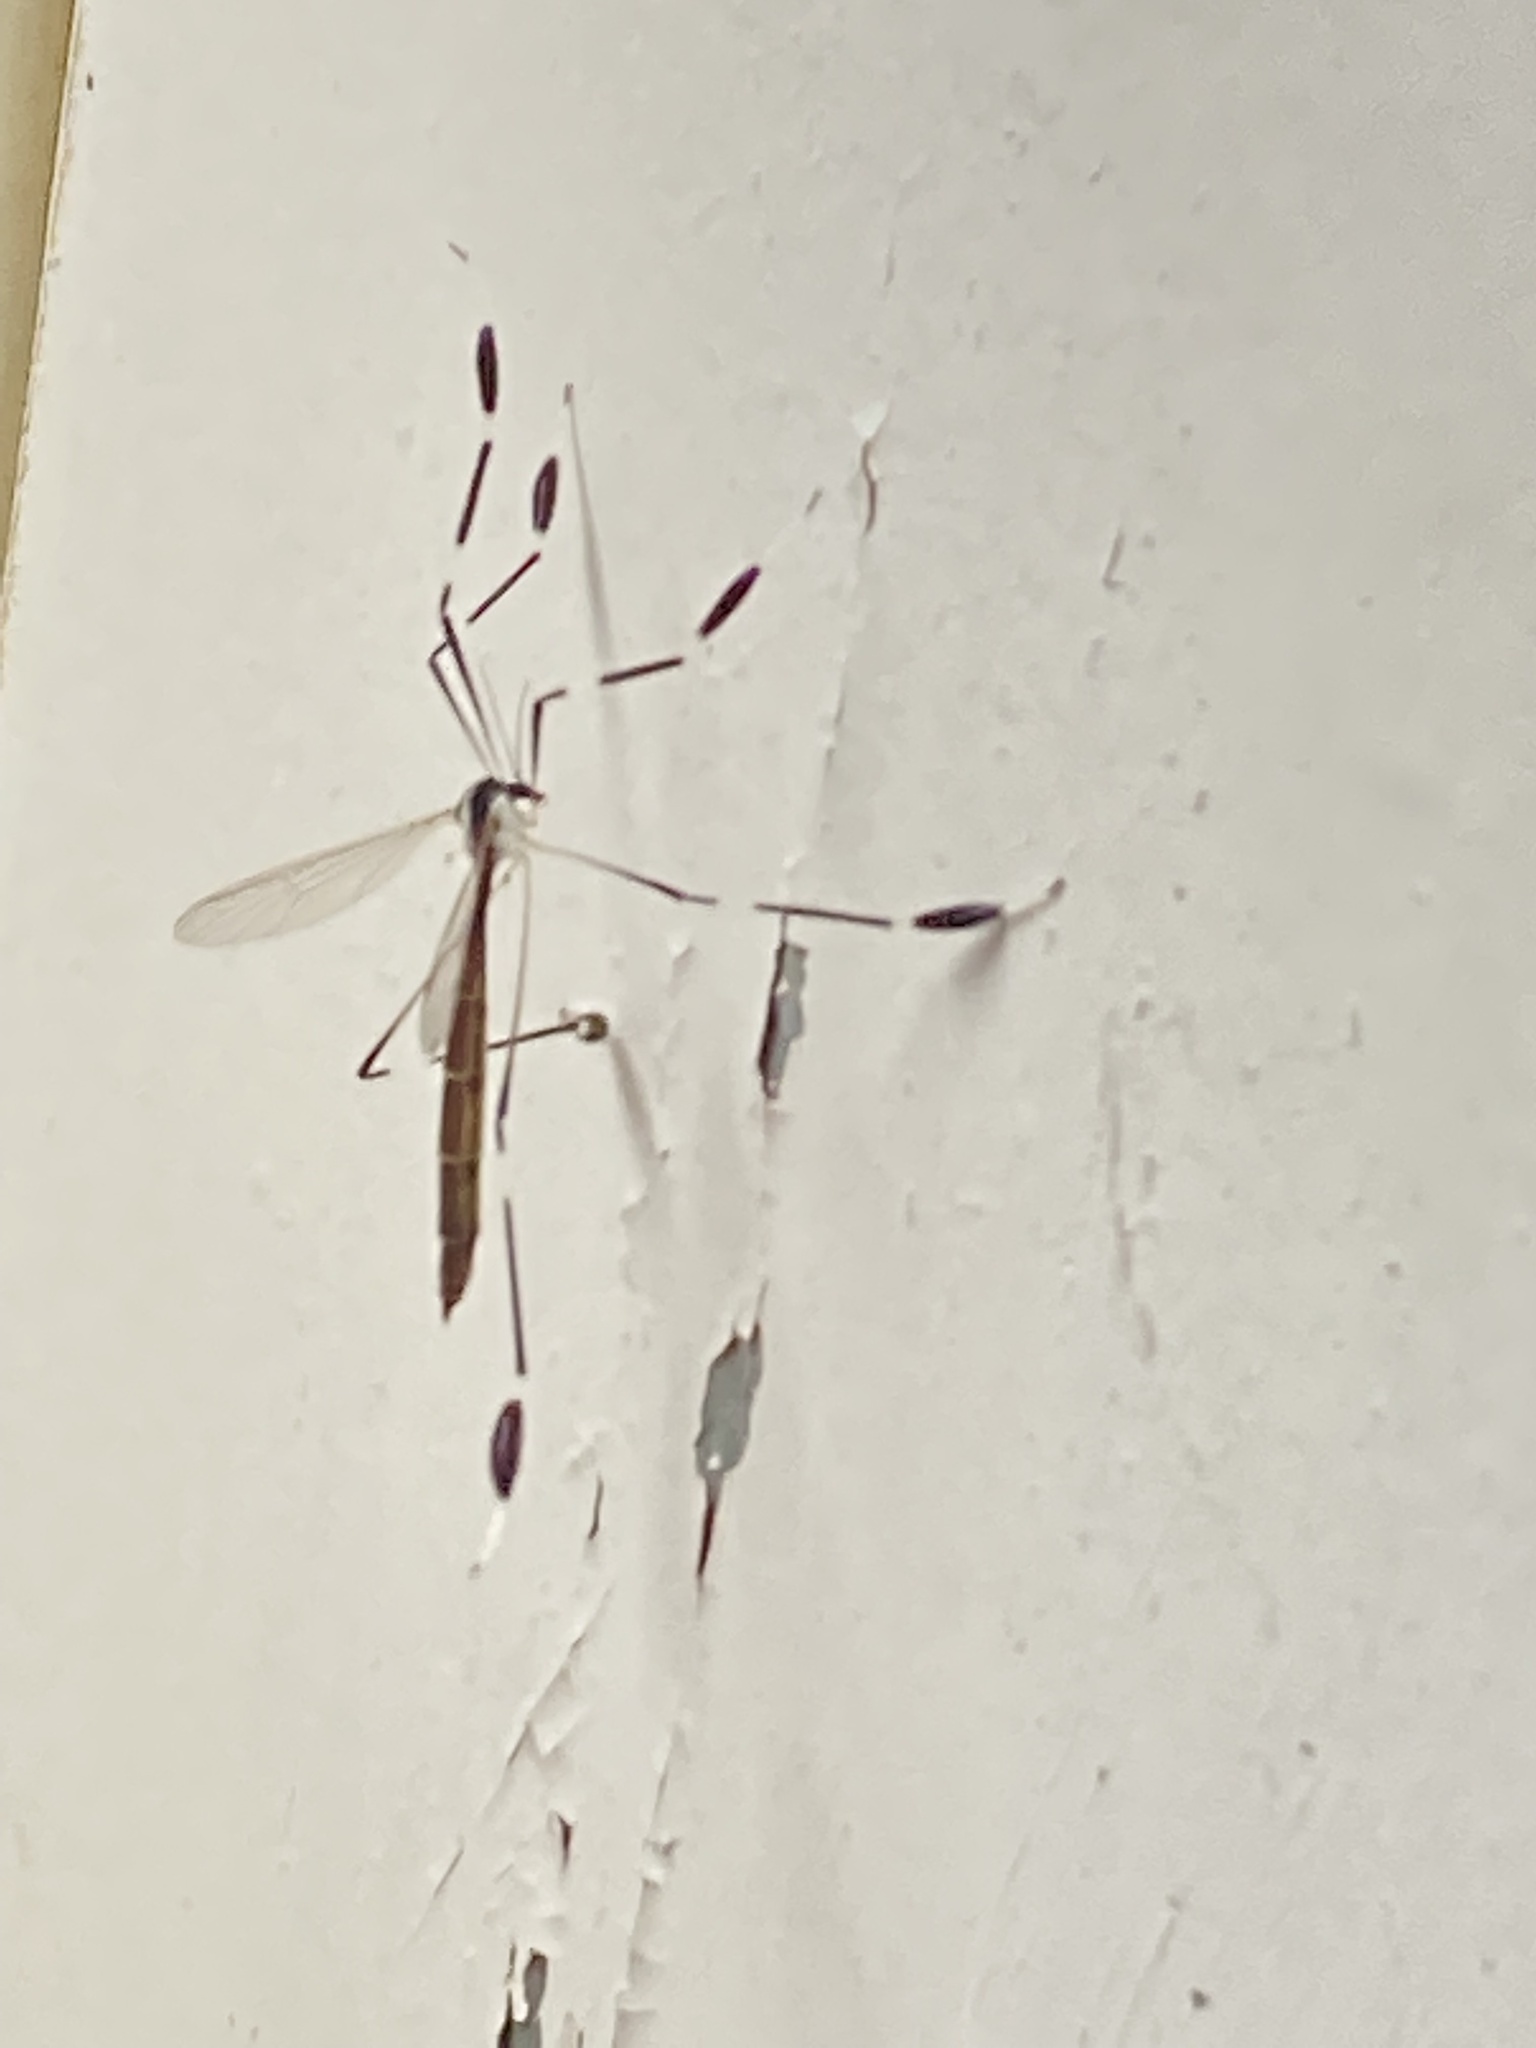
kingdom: Animalia
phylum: Arthropoda
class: Insecta
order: Diptera
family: Ptychopteridae
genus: Bittacomorpha
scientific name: Bittacomorpha clavipes
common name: Eastern phantom crane fly
